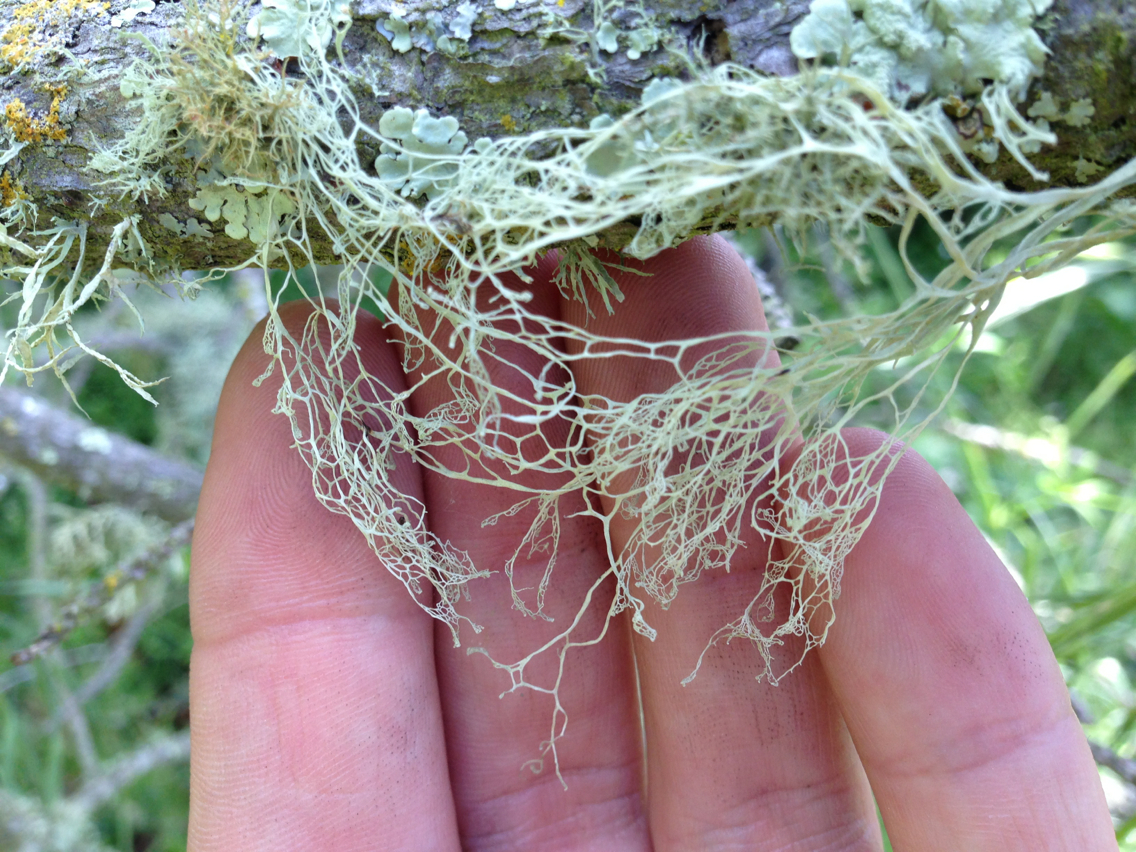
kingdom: Fungi
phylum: Ascomycota
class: Lecanoromycetes
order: Lecanorales
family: Ramalinaceae
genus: Ramalina
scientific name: Ramalina menziesii
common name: Lace lichen
